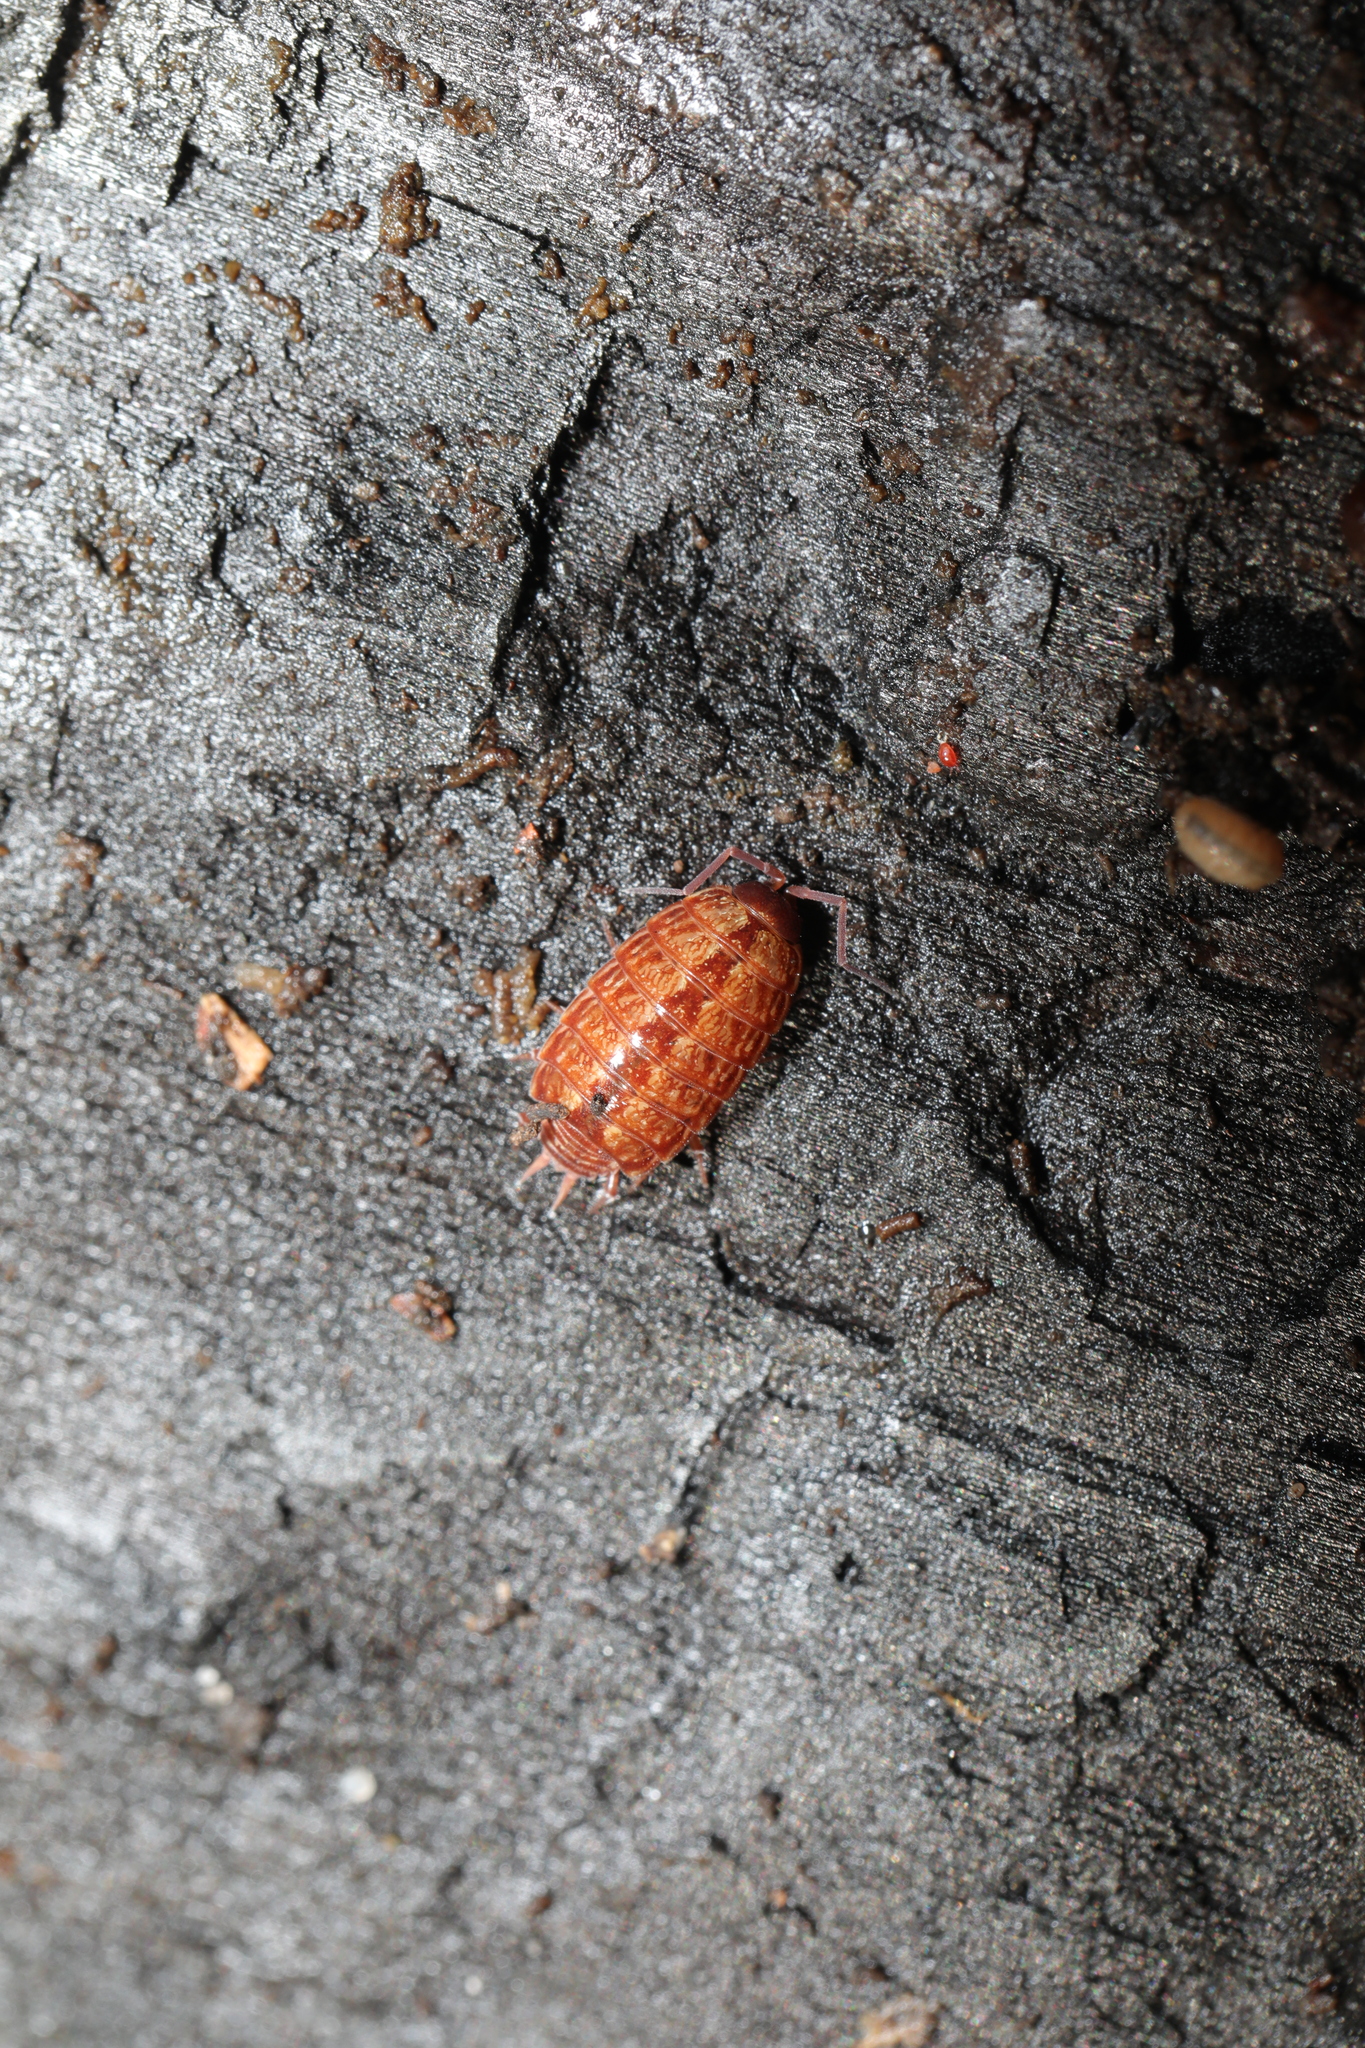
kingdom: Animalia
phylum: Arthropoda
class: Malacostraca
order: Isopoda
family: Philosciidae
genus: Philoscia
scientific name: Philoscia muscorum
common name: Common striped woodlouse
